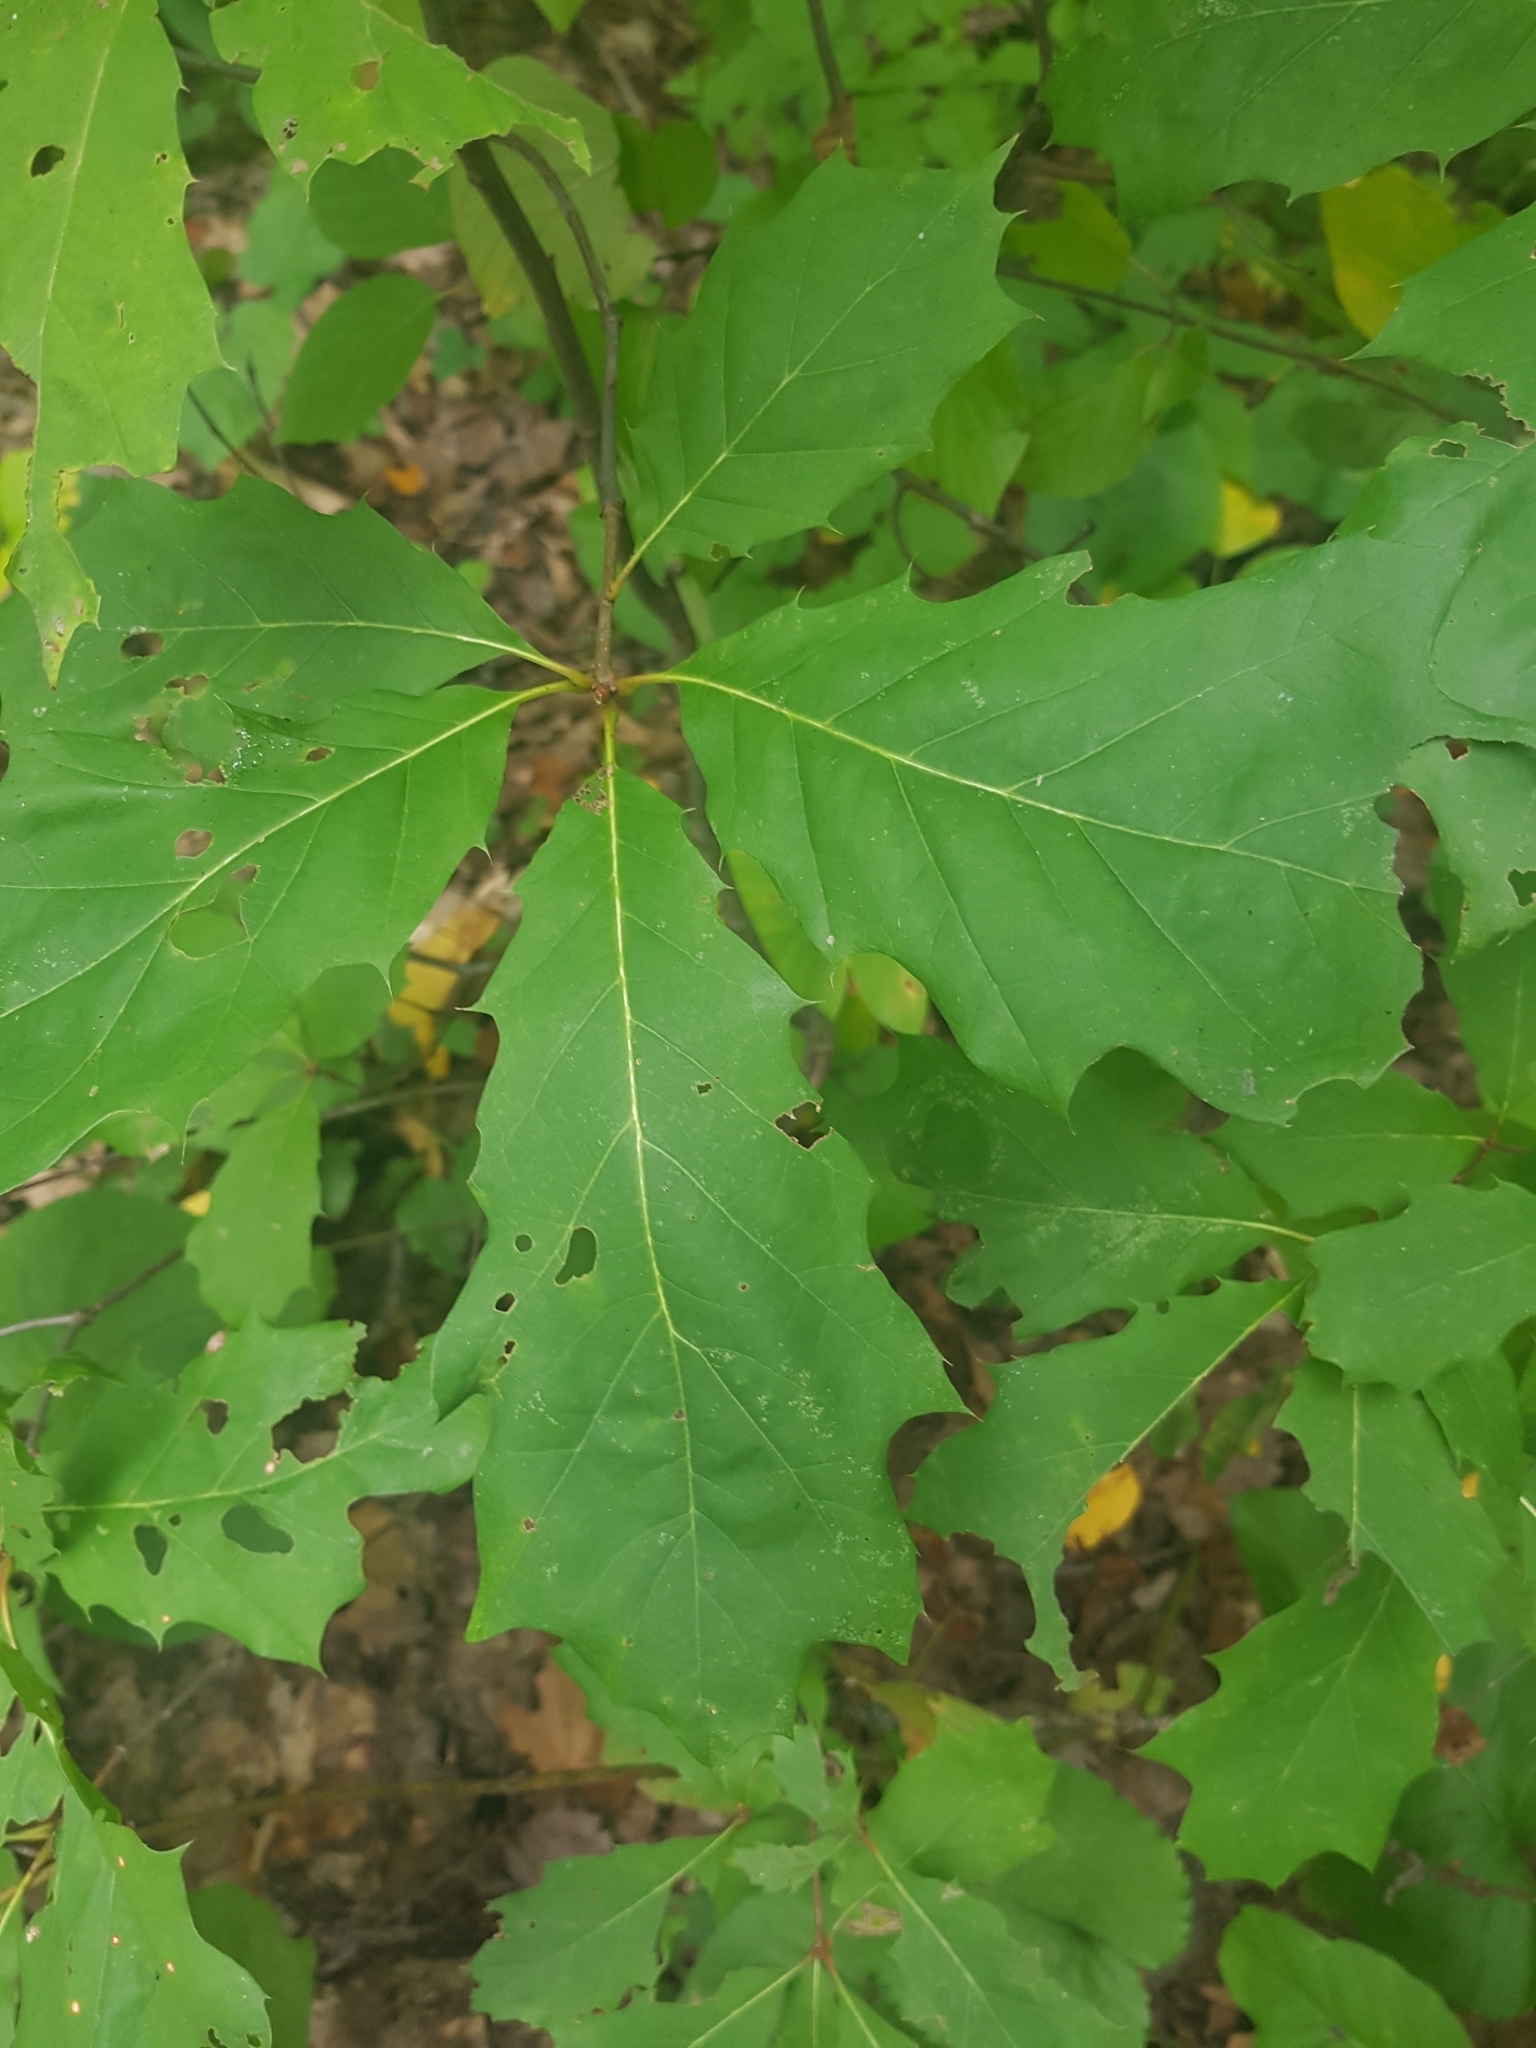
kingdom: Plantae
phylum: Tracheophyta
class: Magnoliopsida
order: Fagales
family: Fagaceae
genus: Quercus
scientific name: Quercus rubra
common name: Red oak
